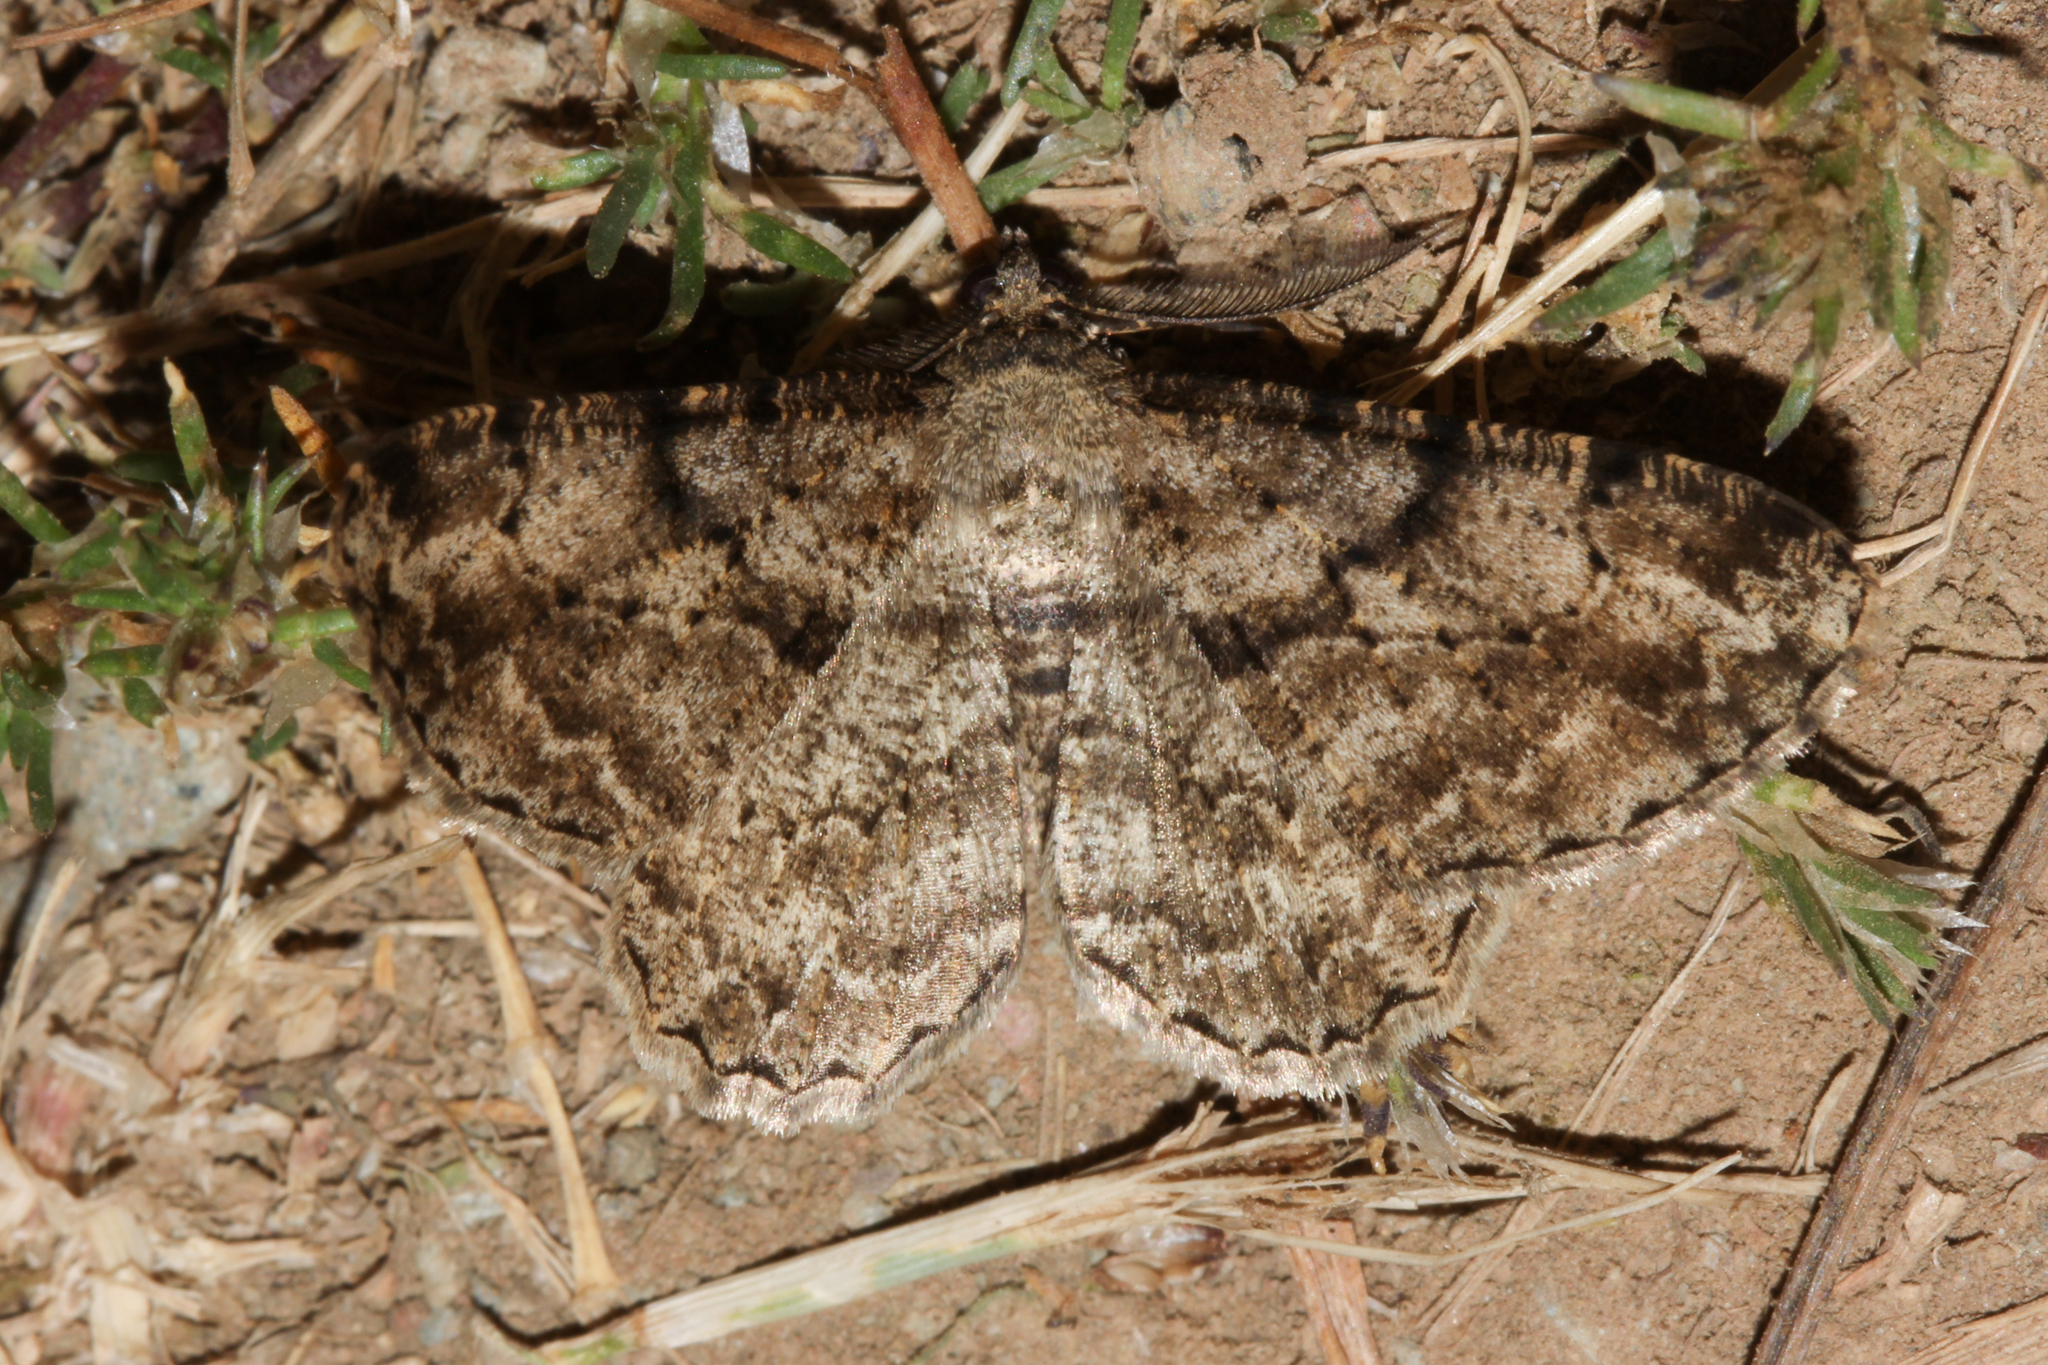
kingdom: Animalia
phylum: Arthropoda
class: Insecta
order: Lepidoptera
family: Geometridae
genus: Peribatodes
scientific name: Peribatodes rhomboidaria
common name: Willow beauty
